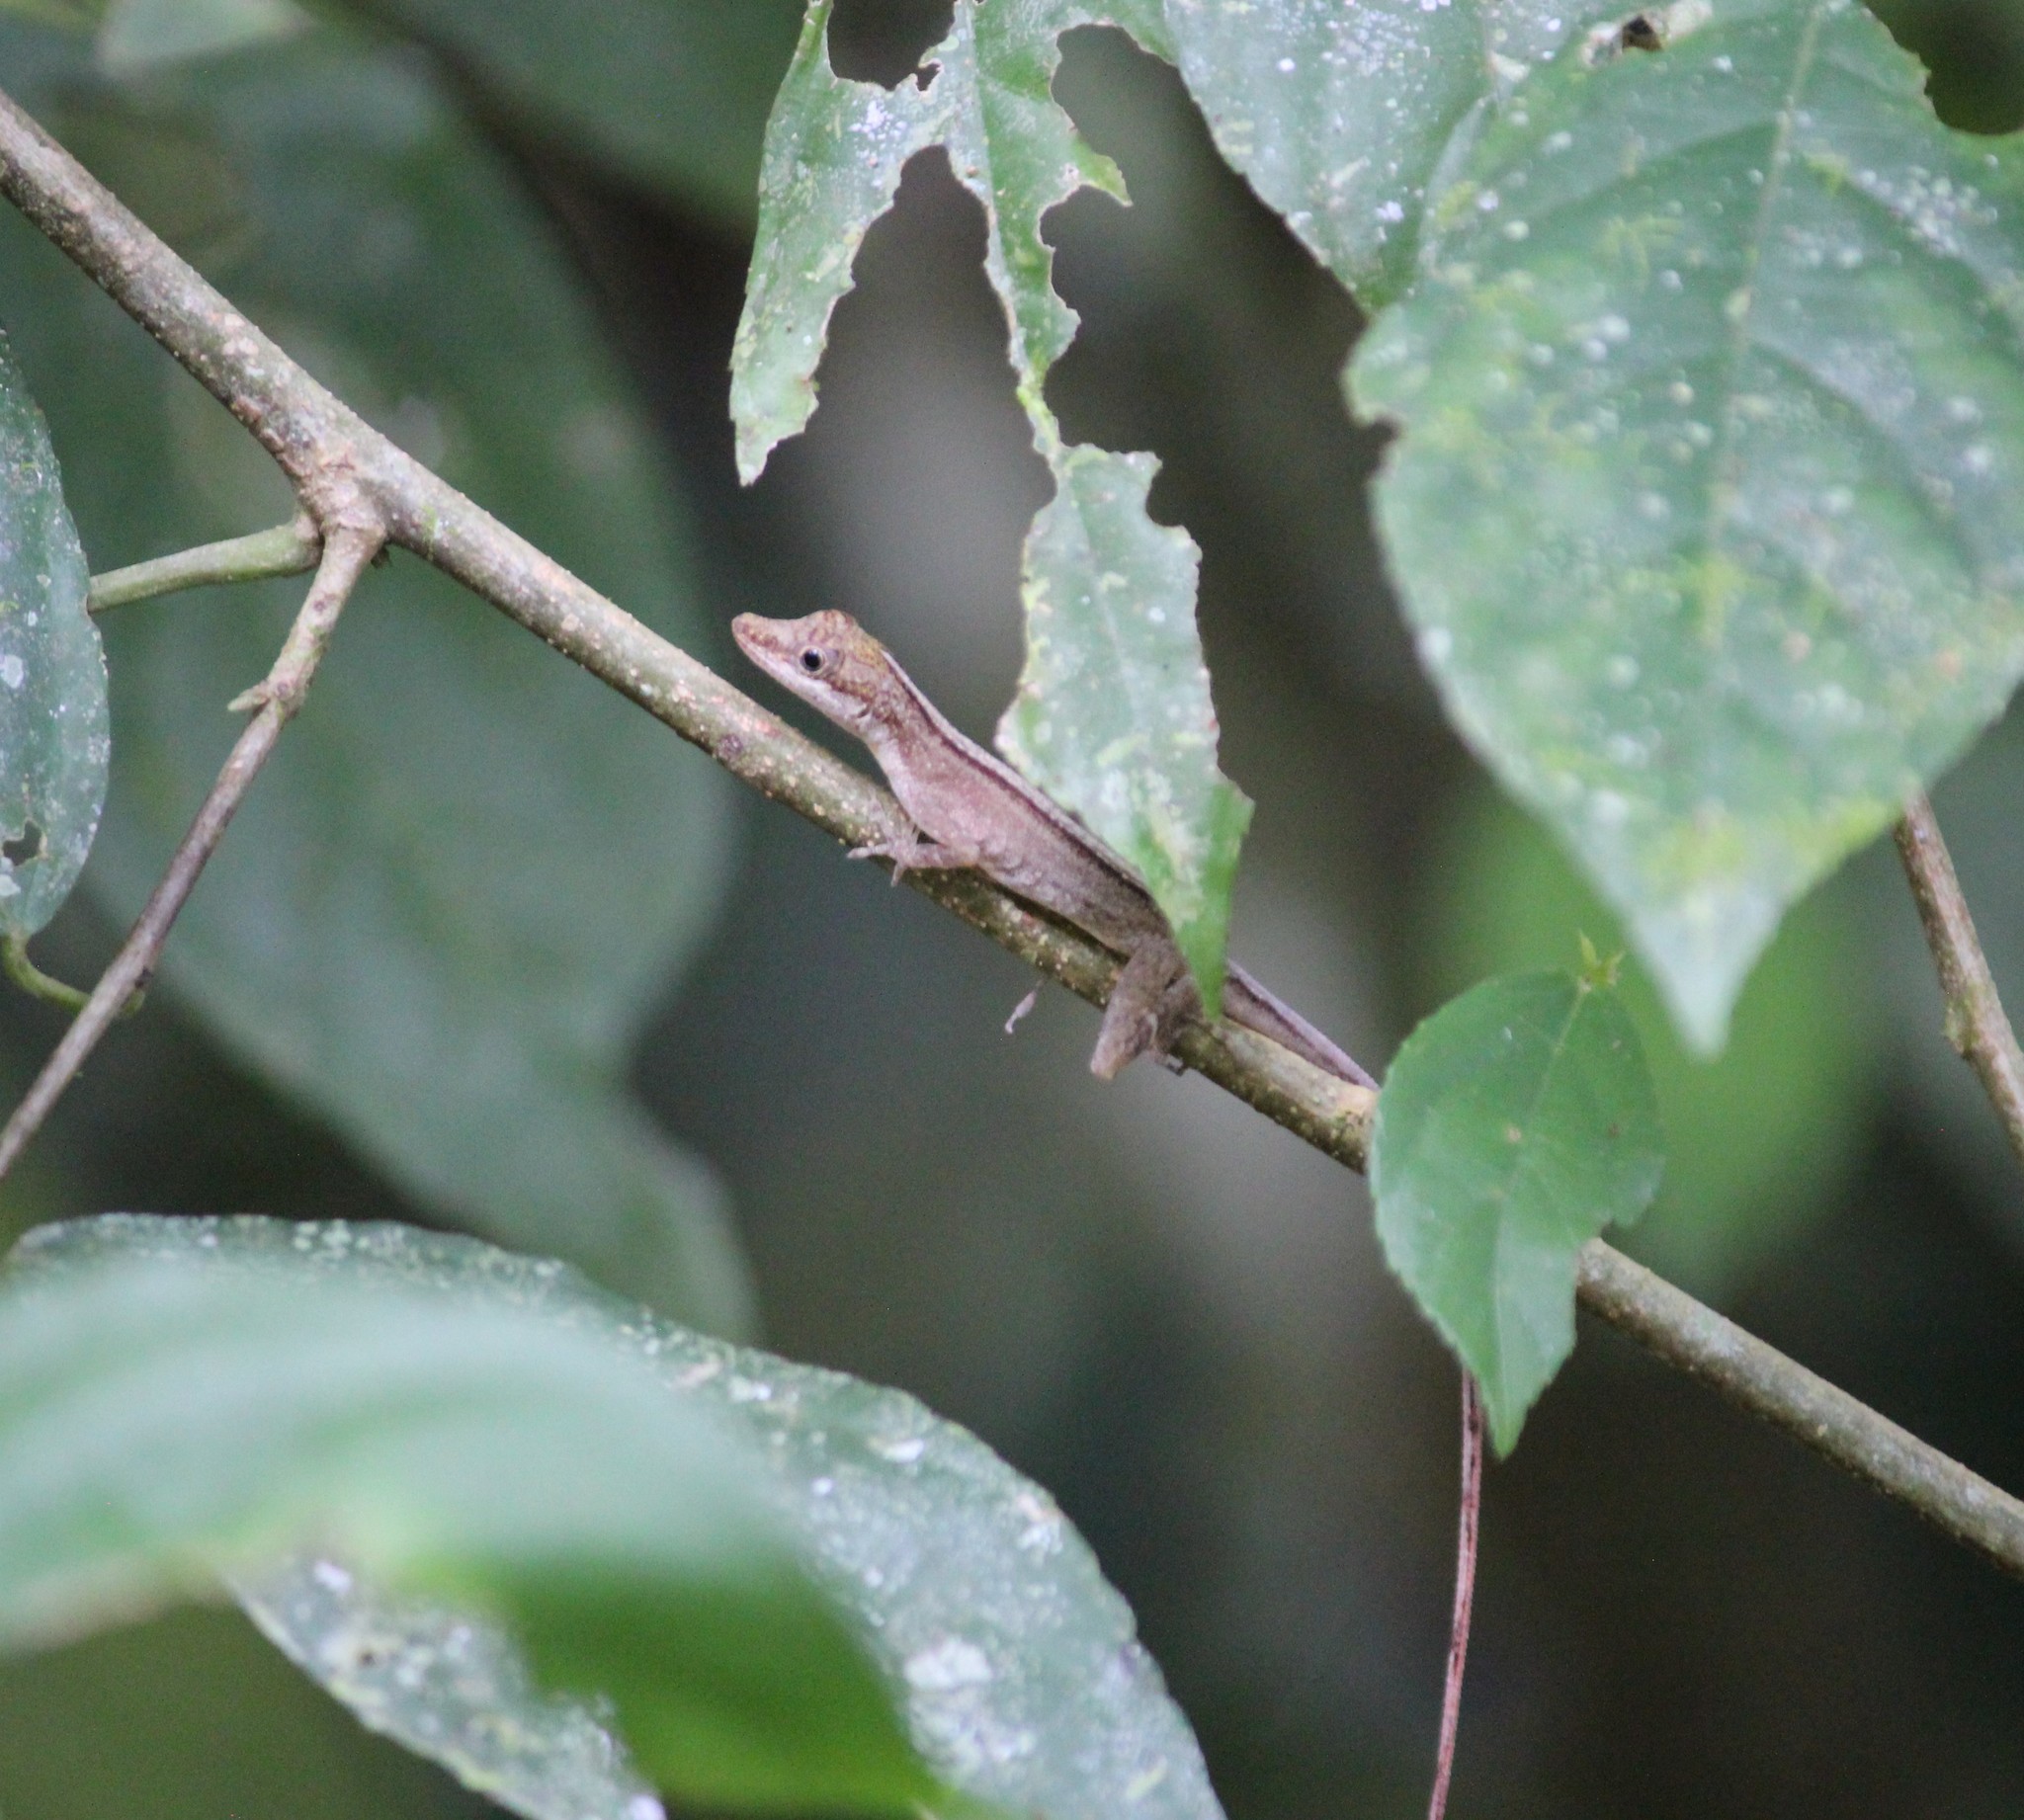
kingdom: Animalia
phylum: Chordata
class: Squamata
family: Dactyloidae
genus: Anolis
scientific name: Anolis limifrons
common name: Border anole
